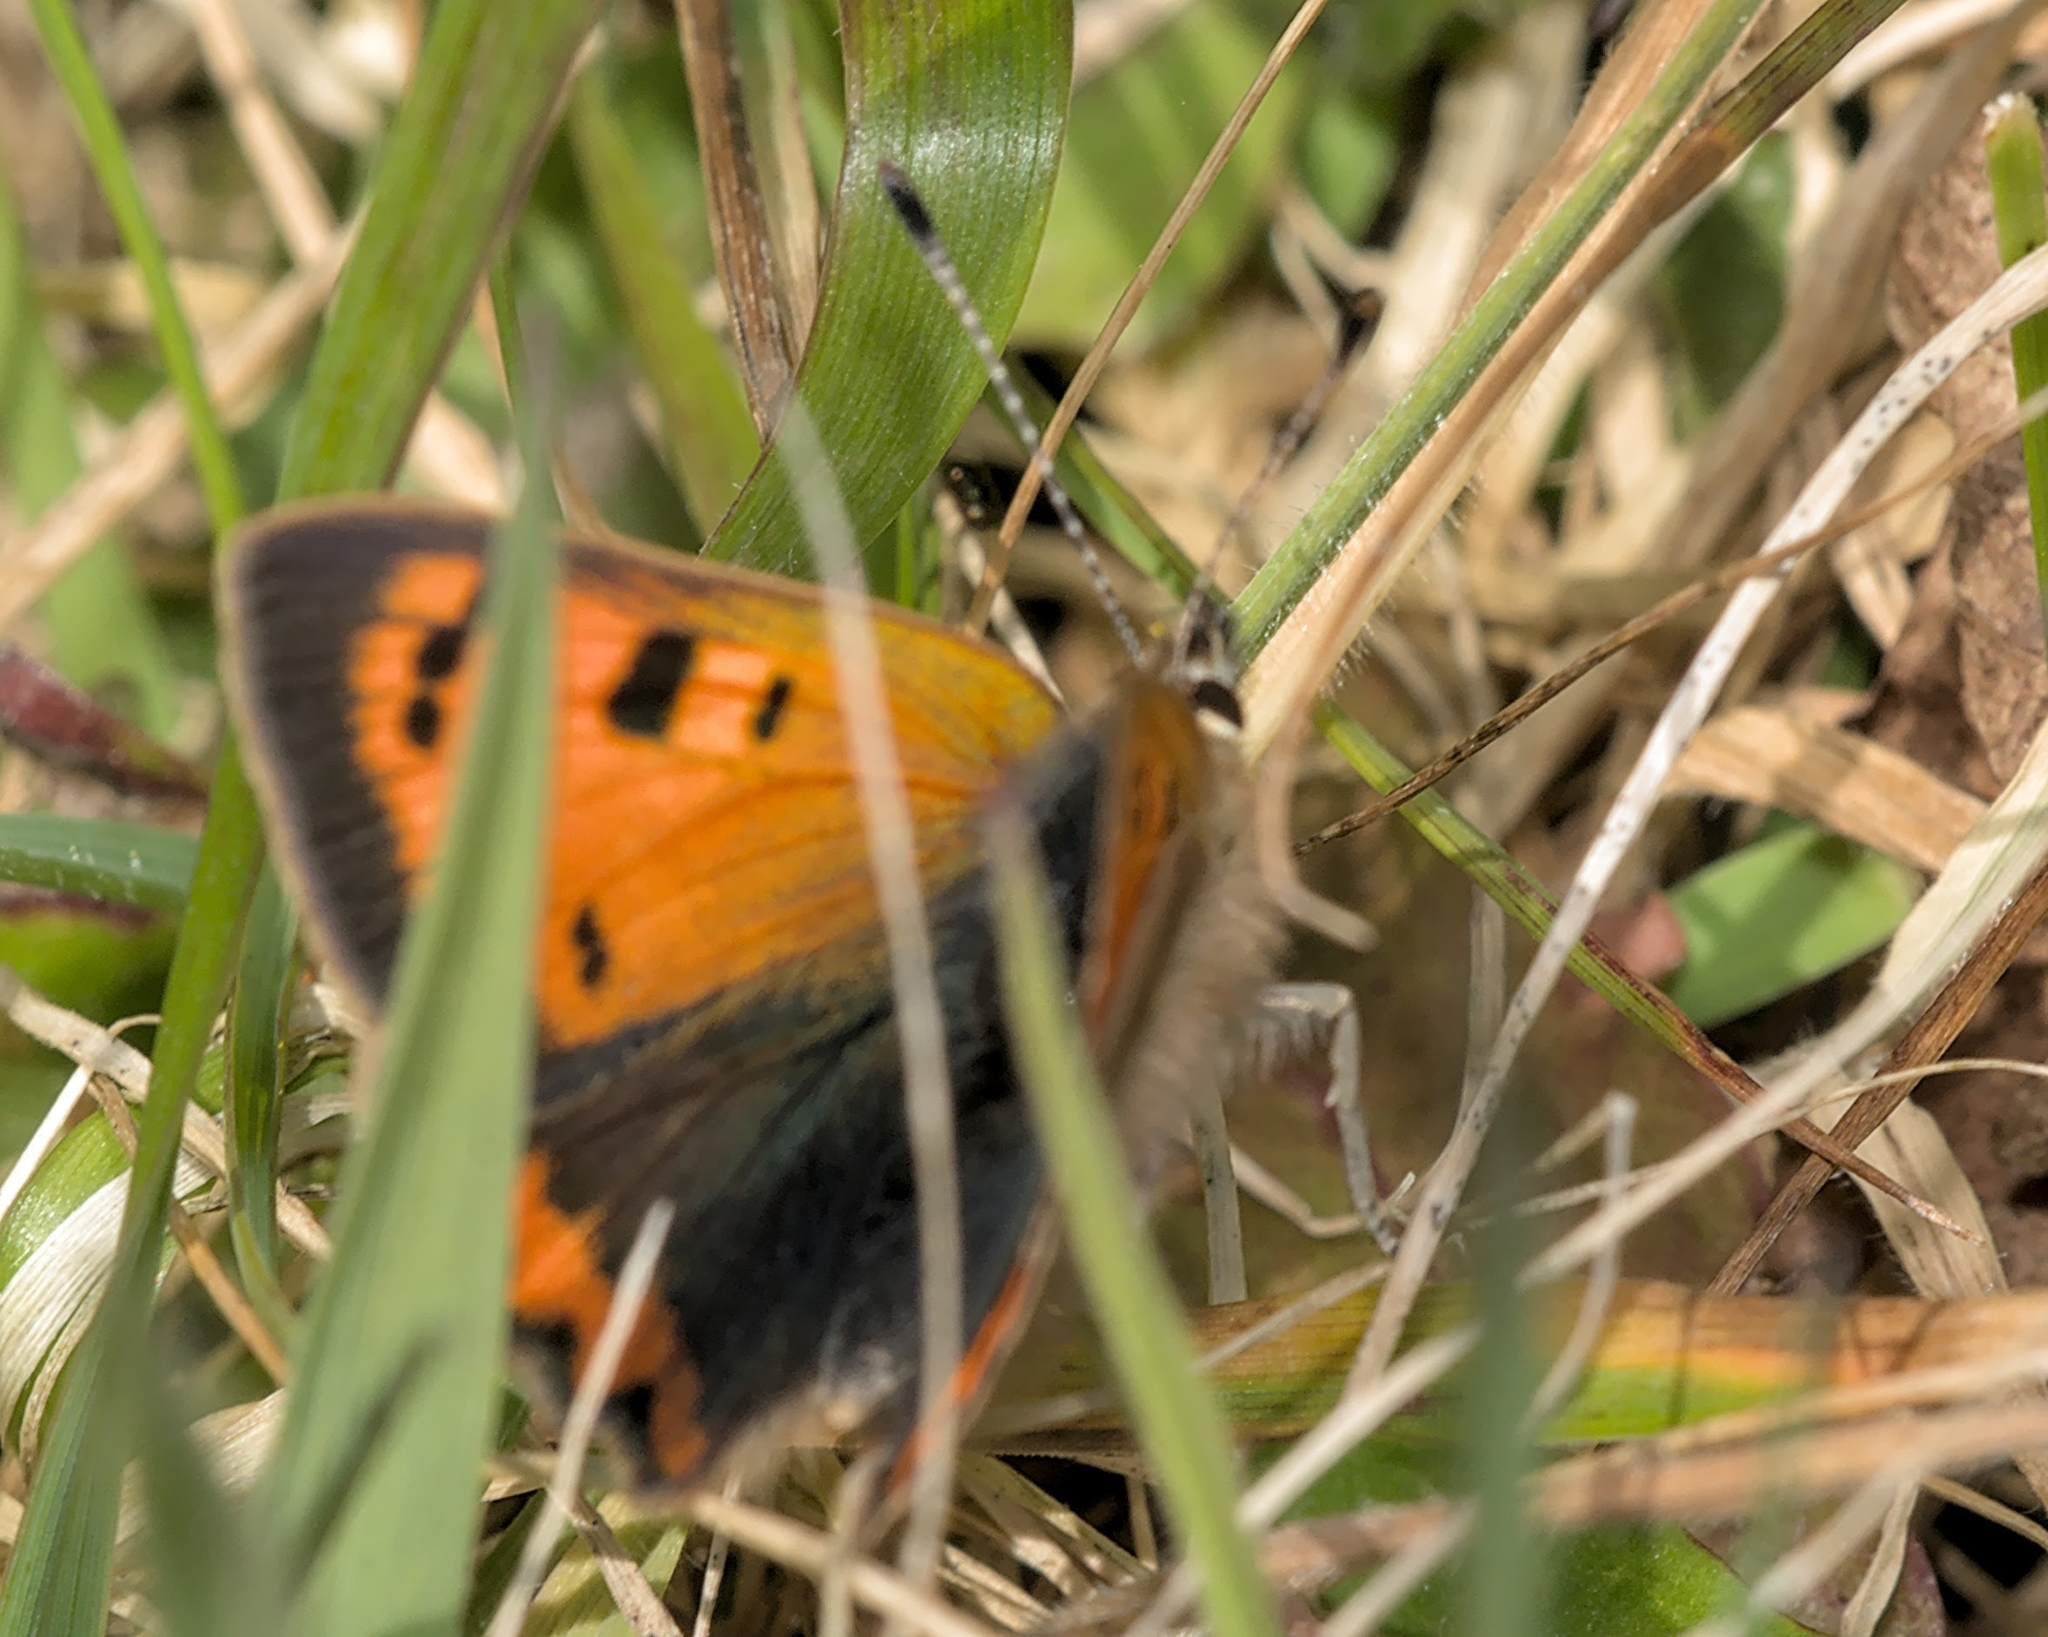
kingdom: Animalia
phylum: Arthropoda
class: Insecta
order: Lepidoptera
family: Lycaenidae
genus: Lycaena
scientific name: Lycaena phlaeas
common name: Small copper
